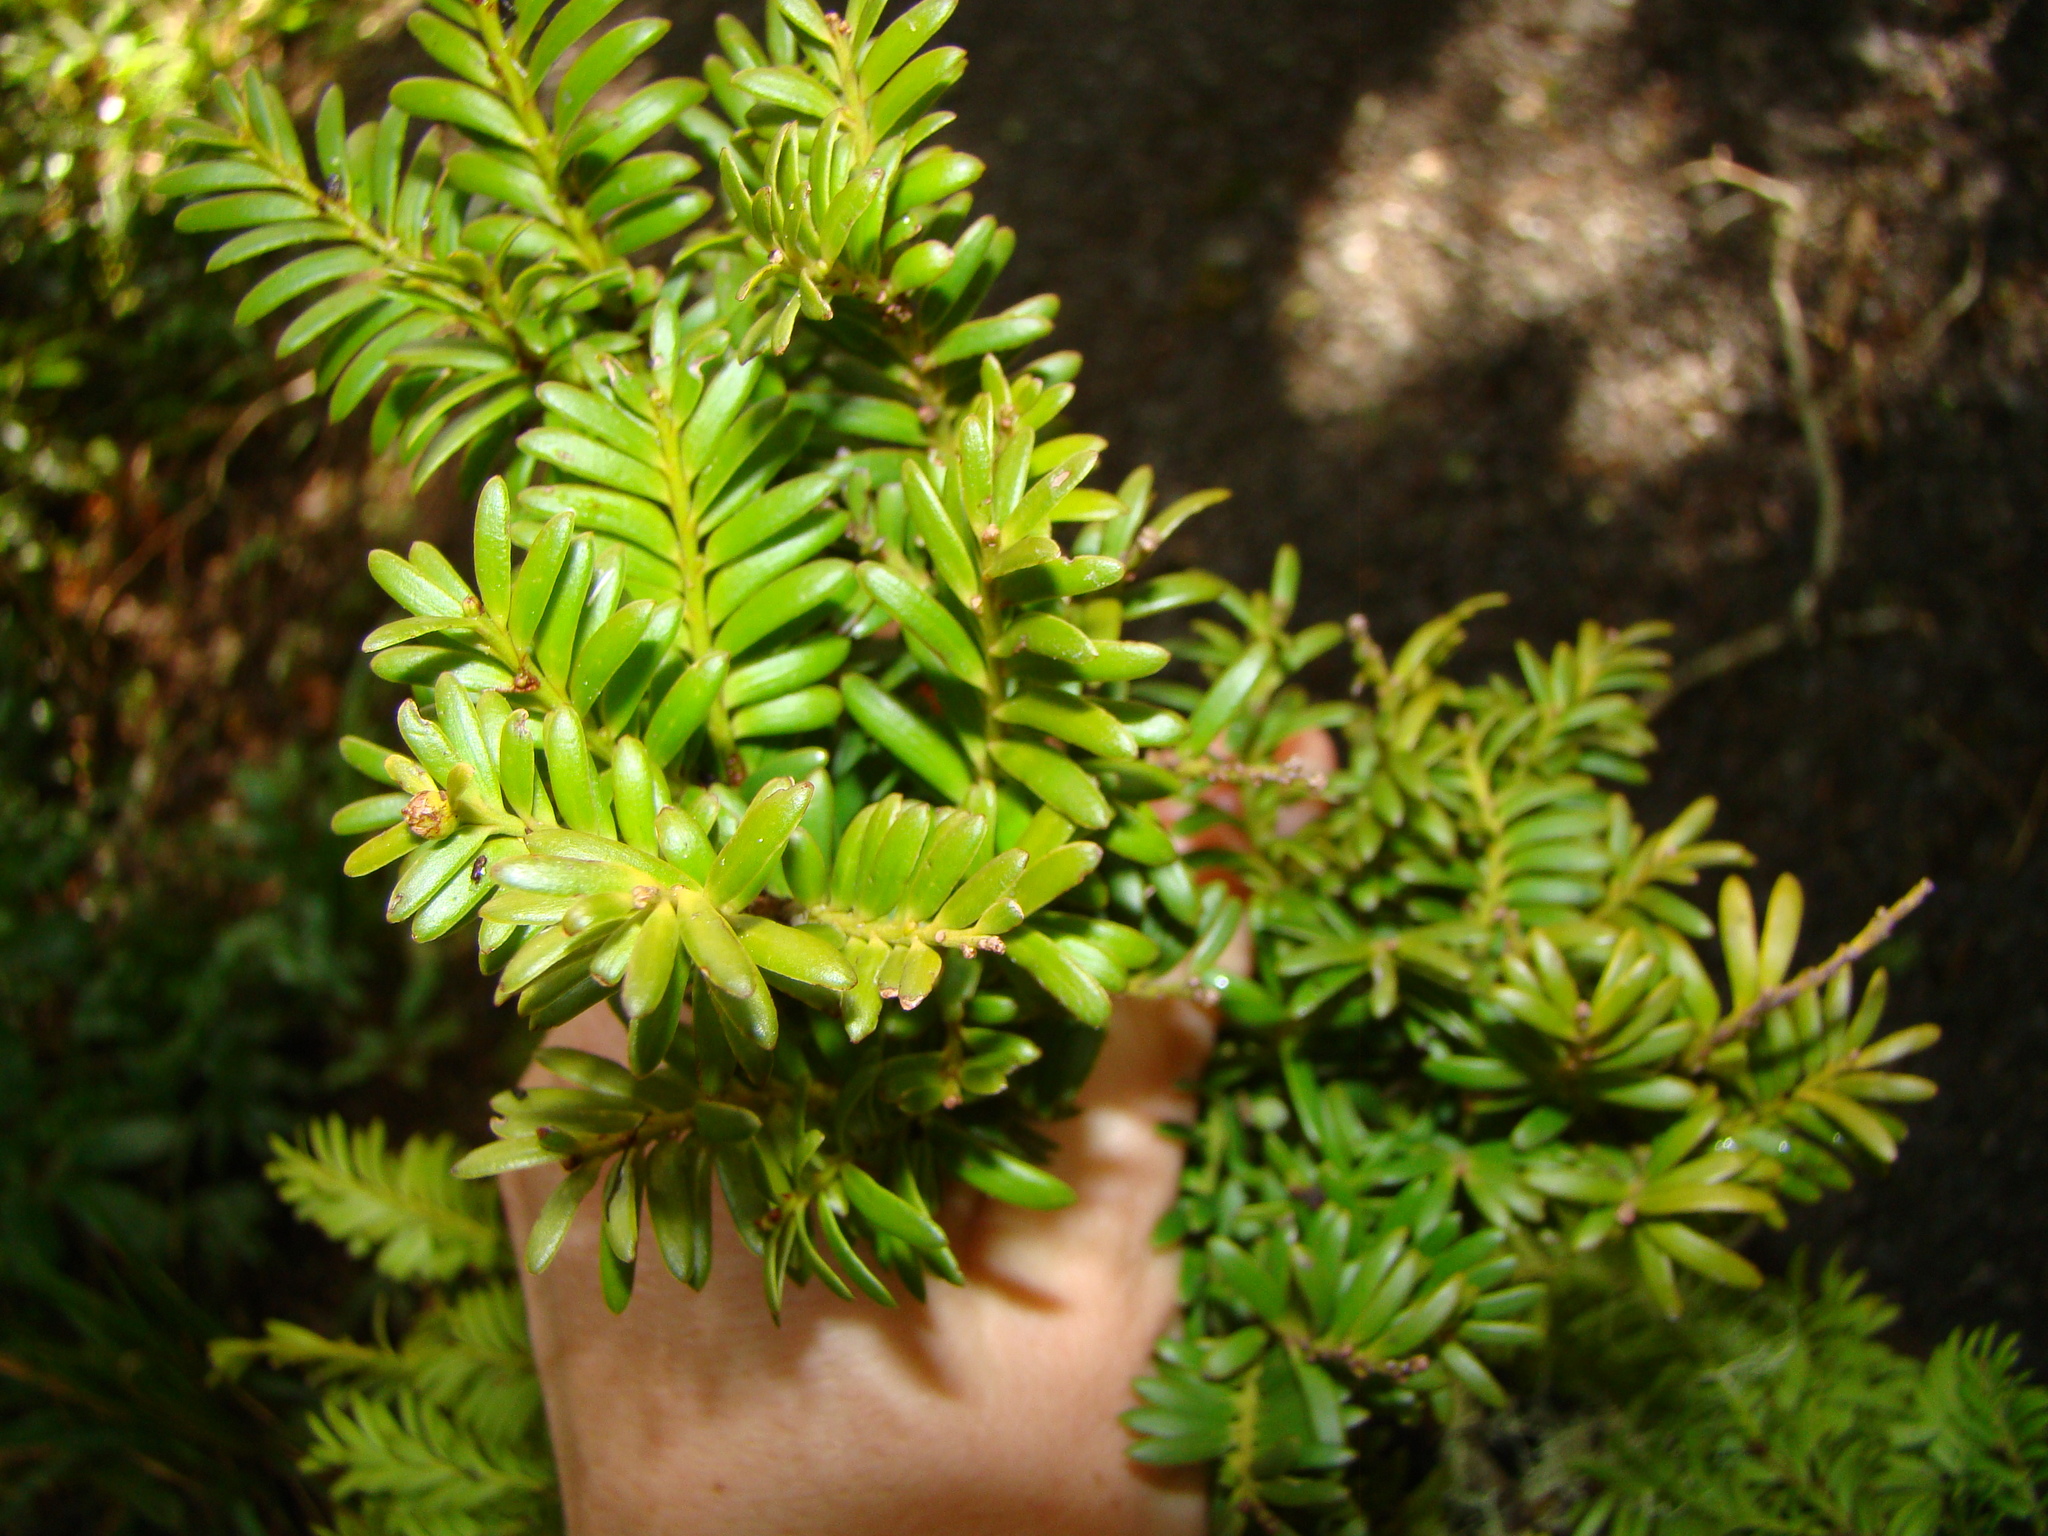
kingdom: Plantae
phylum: Tracheophyta
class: Pinopsida
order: Pinales
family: Podocarpaceae
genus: Prumnopitys
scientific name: Prumnopitys ferruginea
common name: Brown pine
